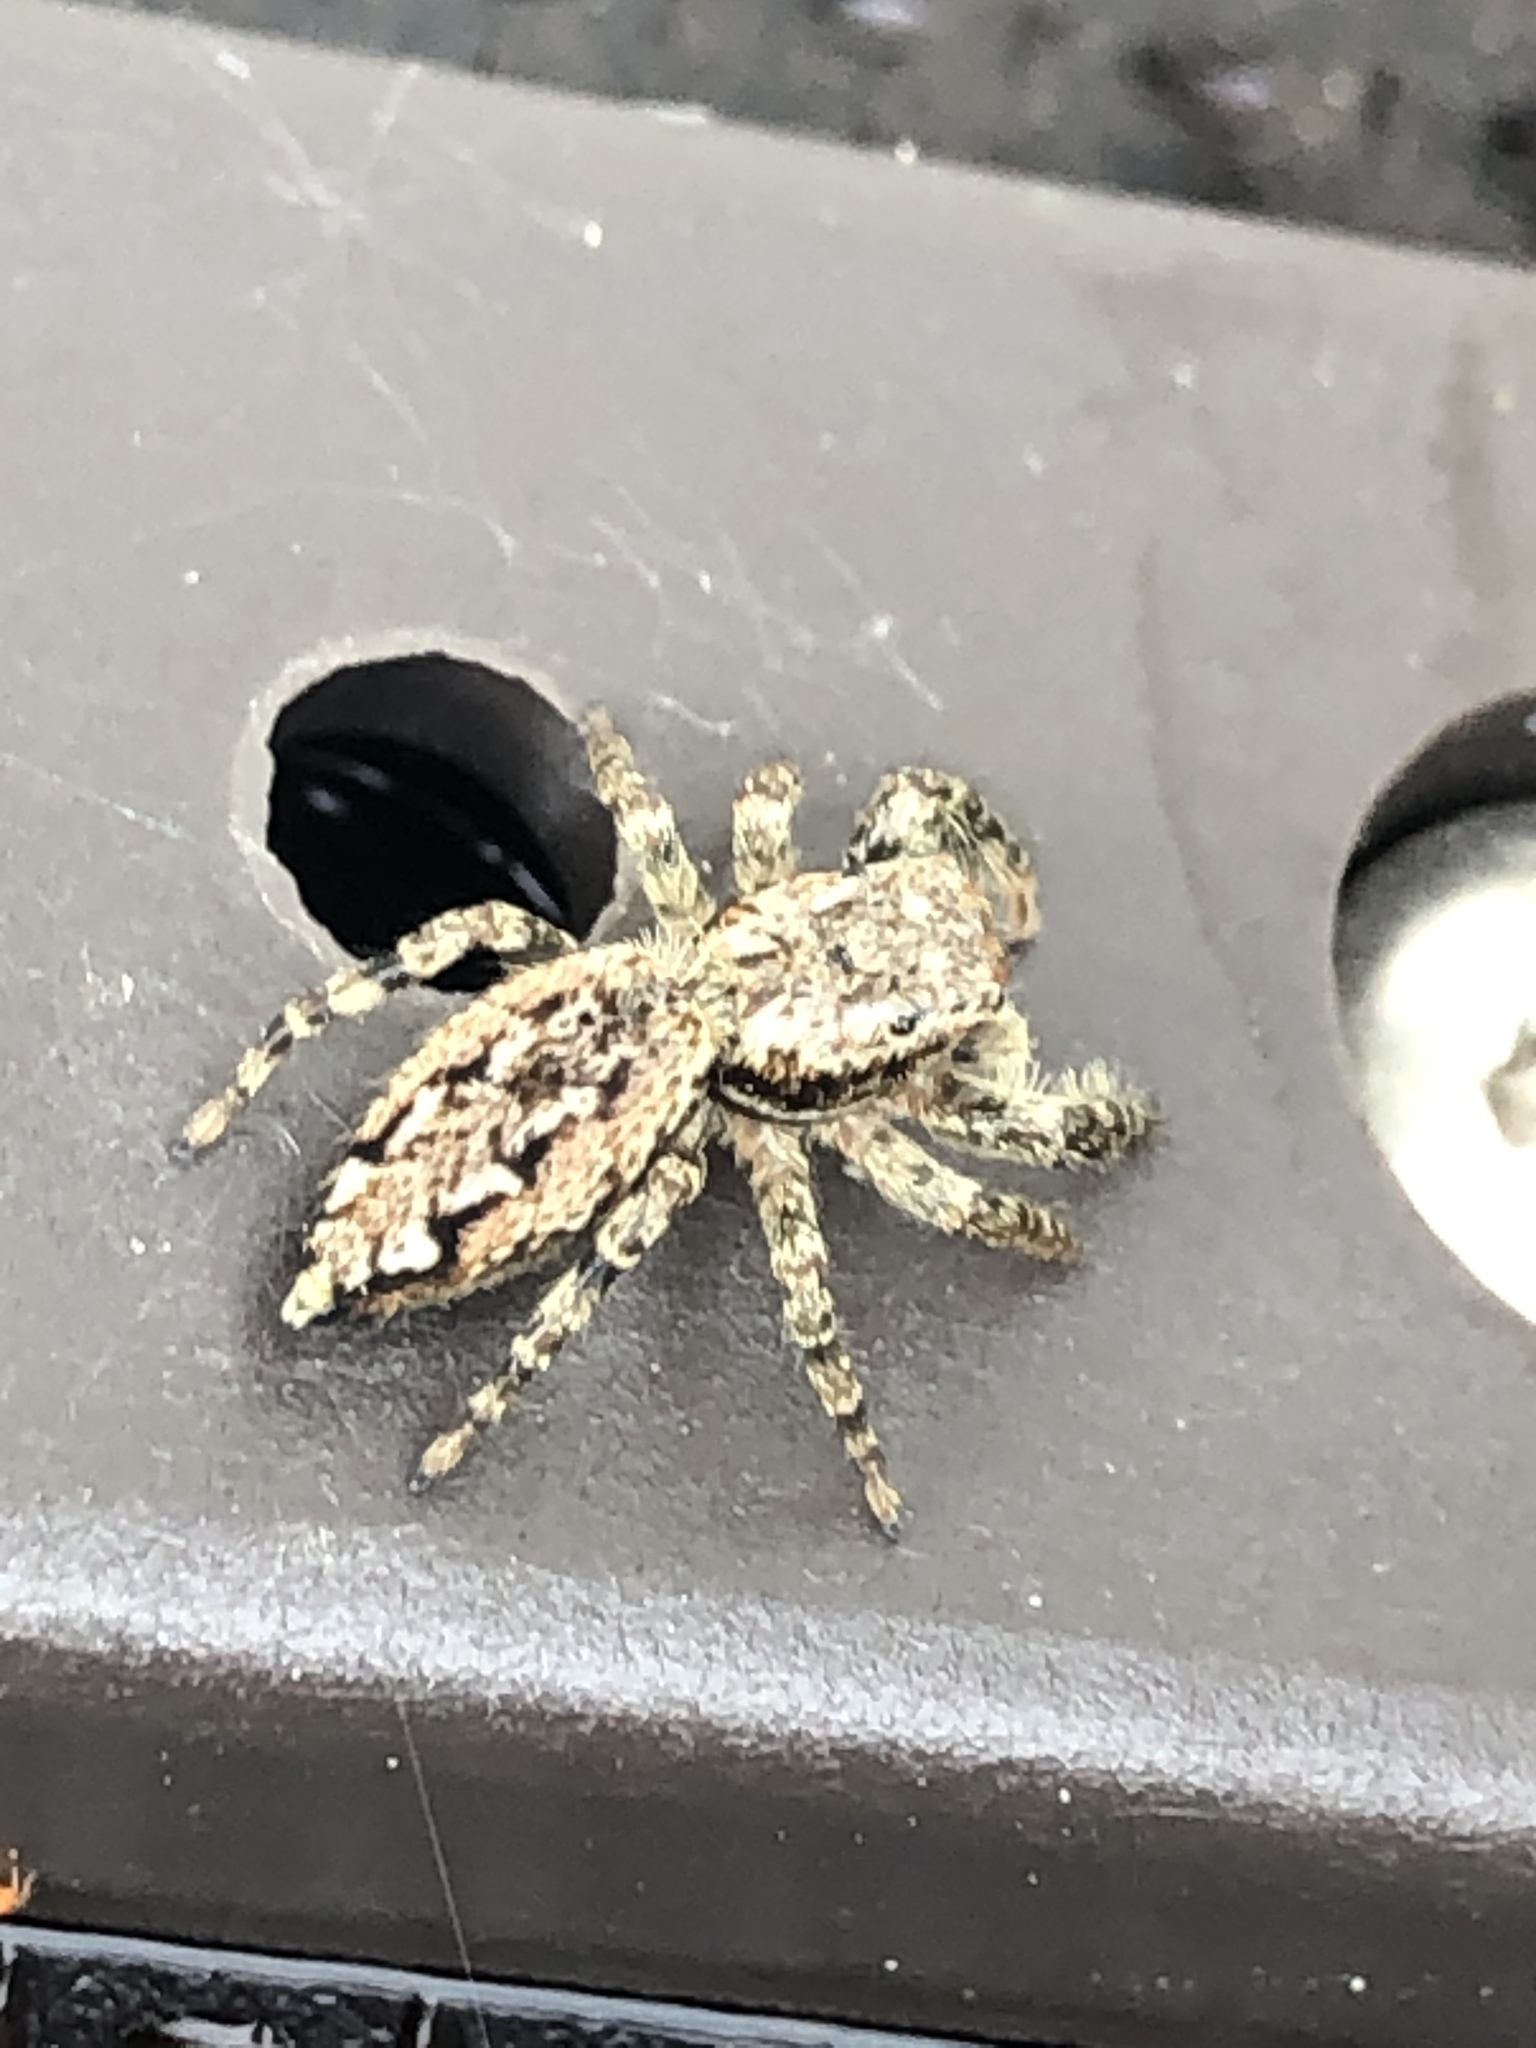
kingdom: Animalia
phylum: Arthropoda
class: Arachnida
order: Araneae
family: Salticidae
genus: Marpissa
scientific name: Marpissa muscosa
